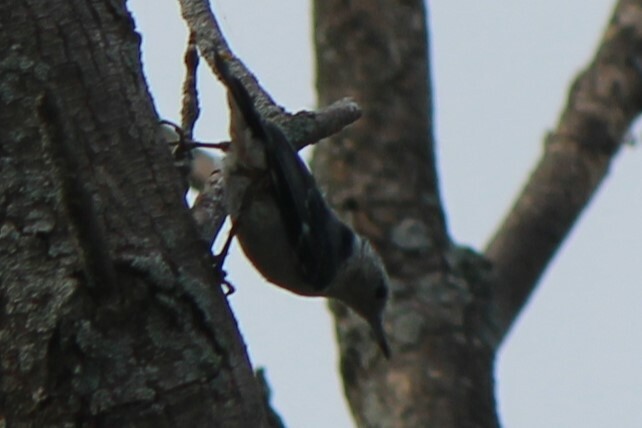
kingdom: Animalia
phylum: Chordata
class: Aves
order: Passeriformes
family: Sittidae
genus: Sitta
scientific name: Sitta carolinensis
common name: White-breasted nuthatch
